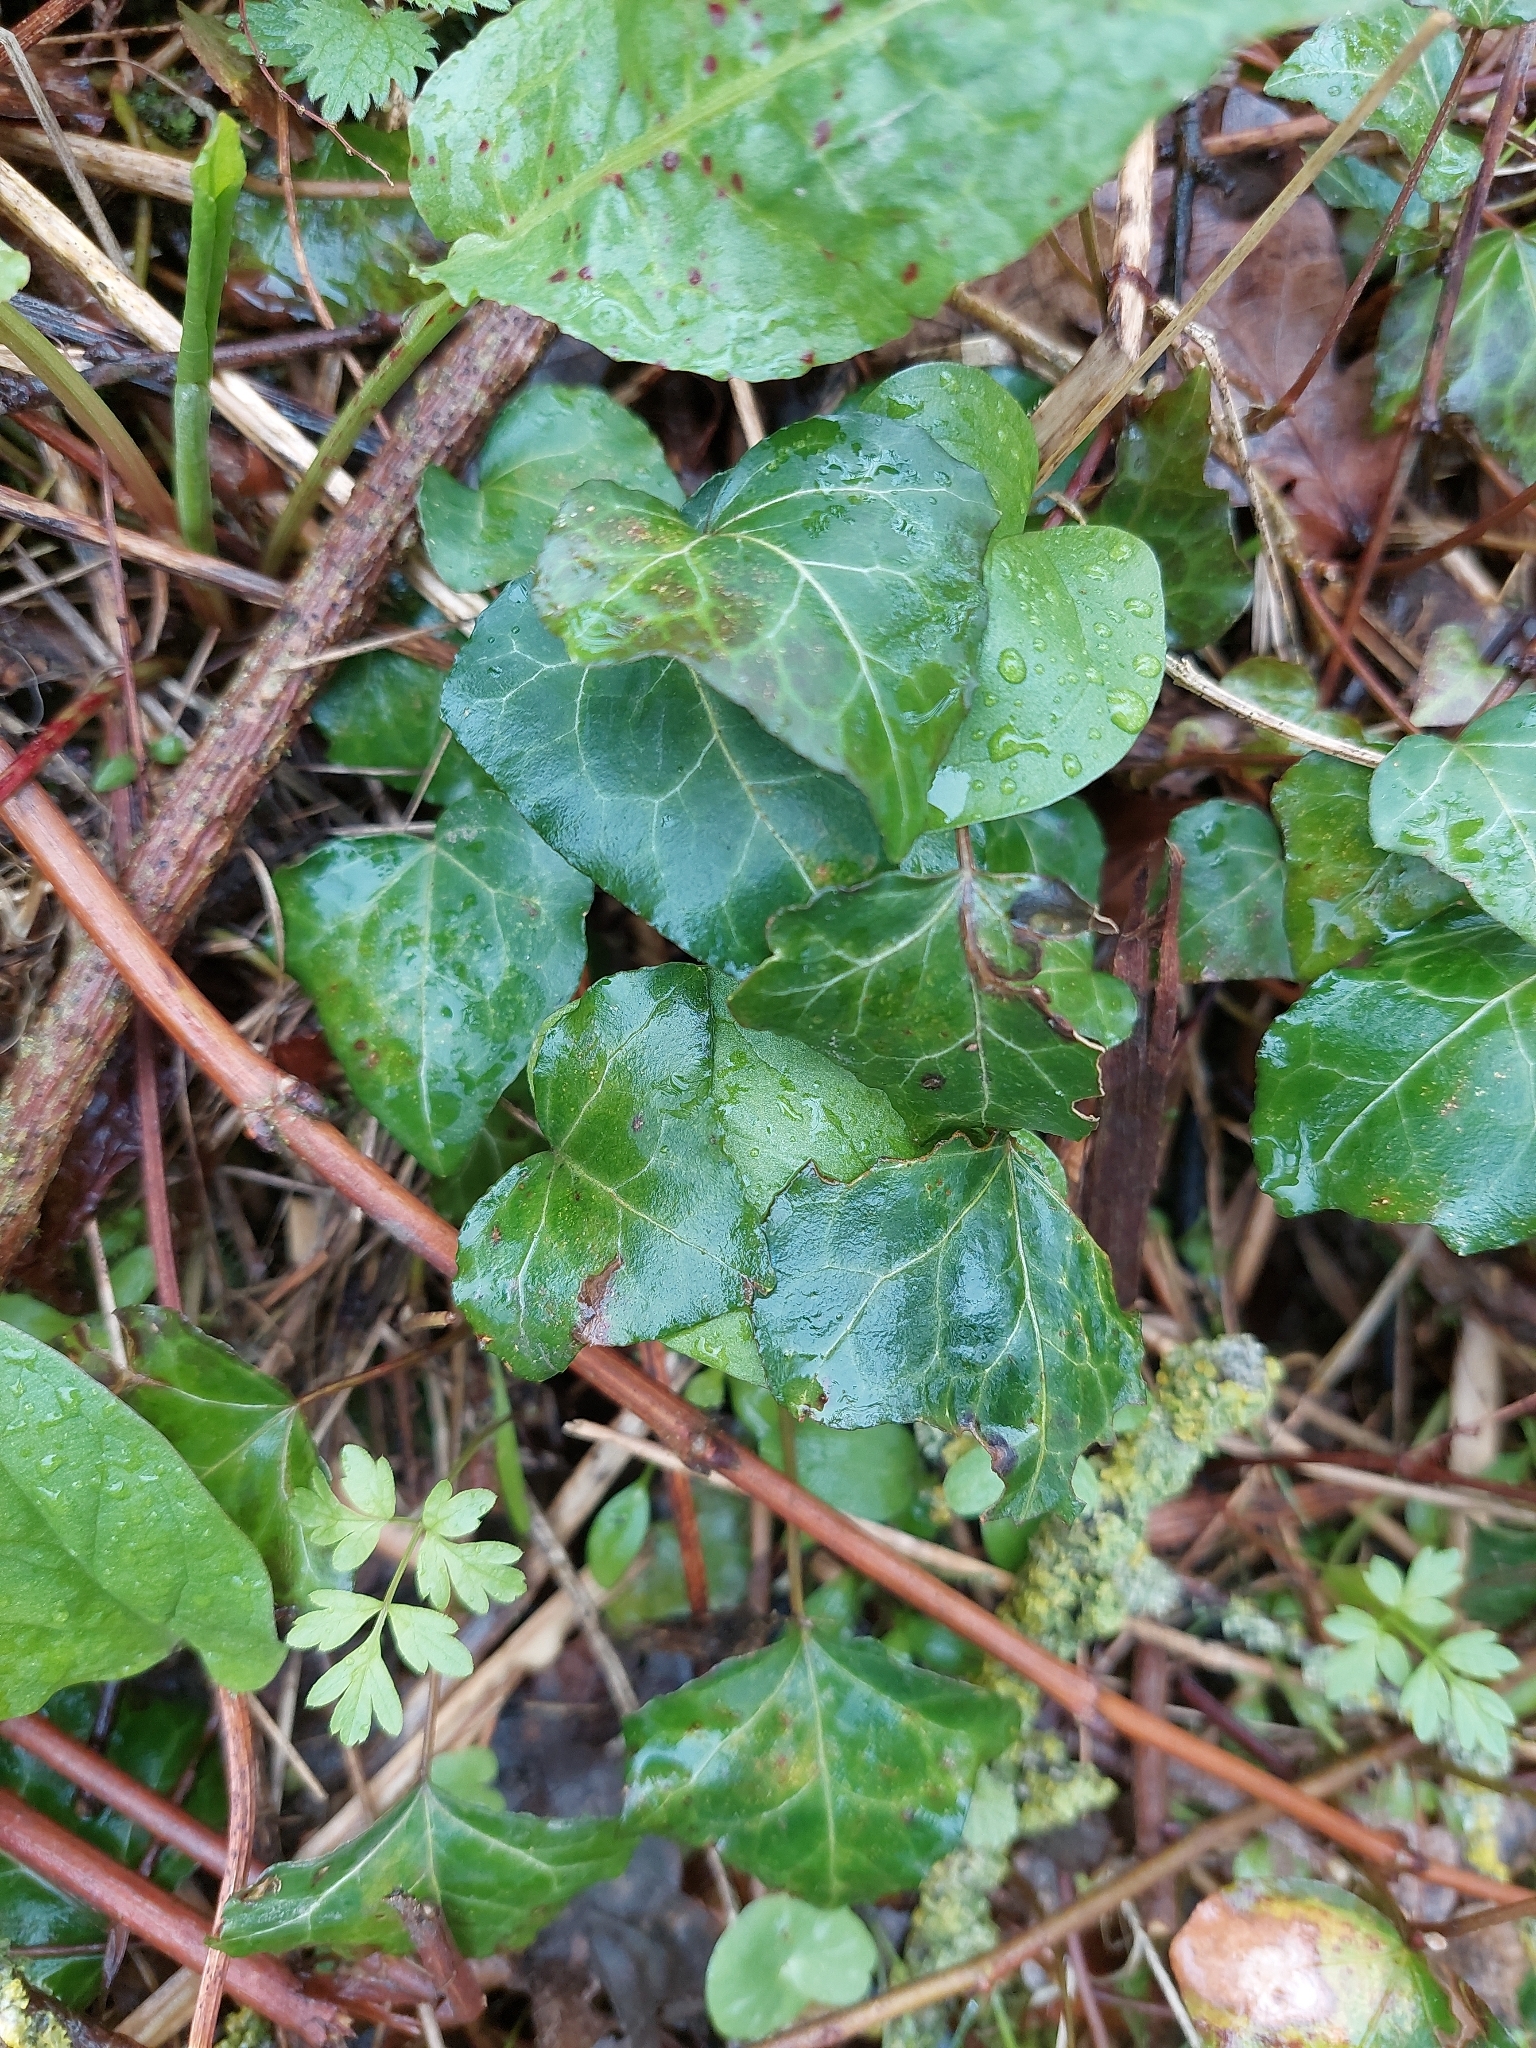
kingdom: Plantae
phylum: Tracheophyta
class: Magnoliopsida
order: Apiales
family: Araliaceae
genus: Hedera
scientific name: Hedera helix
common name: Ivy
